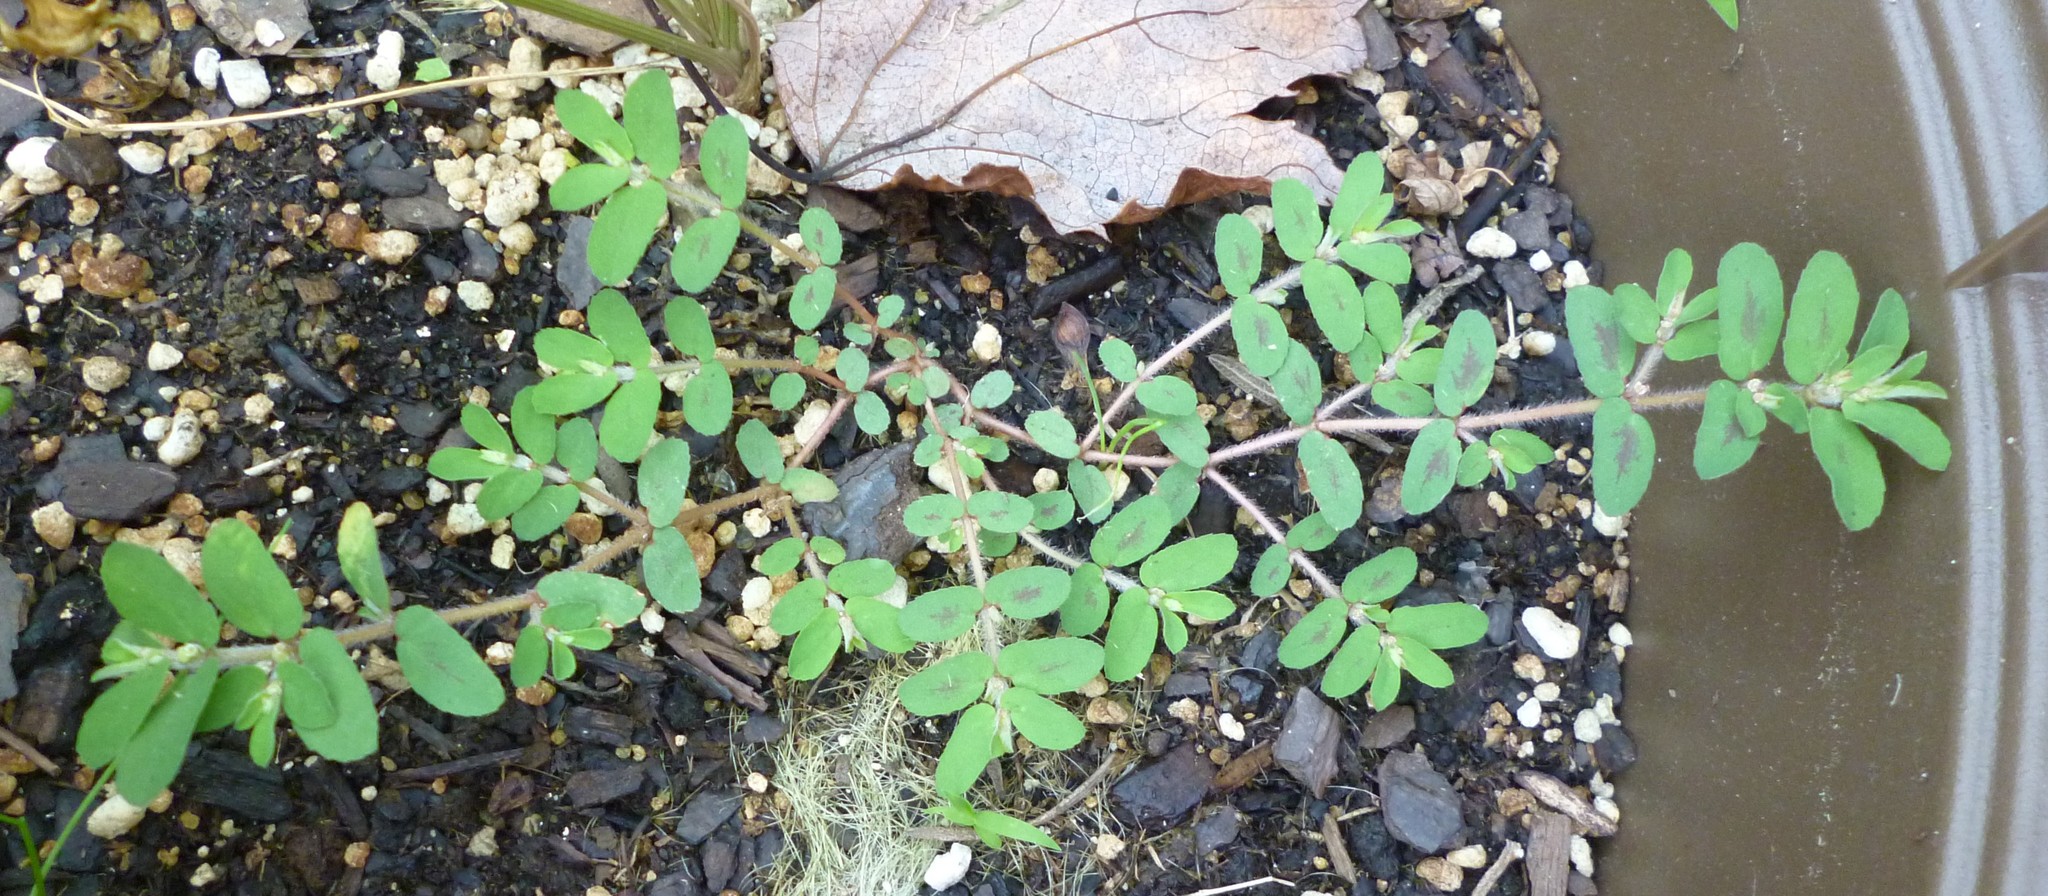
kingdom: Plantae
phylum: Tracheophyta
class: Magnoliopsida
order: Malpighiales
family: Euphorbiaceae
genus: Euphorbia
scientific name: Euphorbia maculata
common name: Spotted spurge
